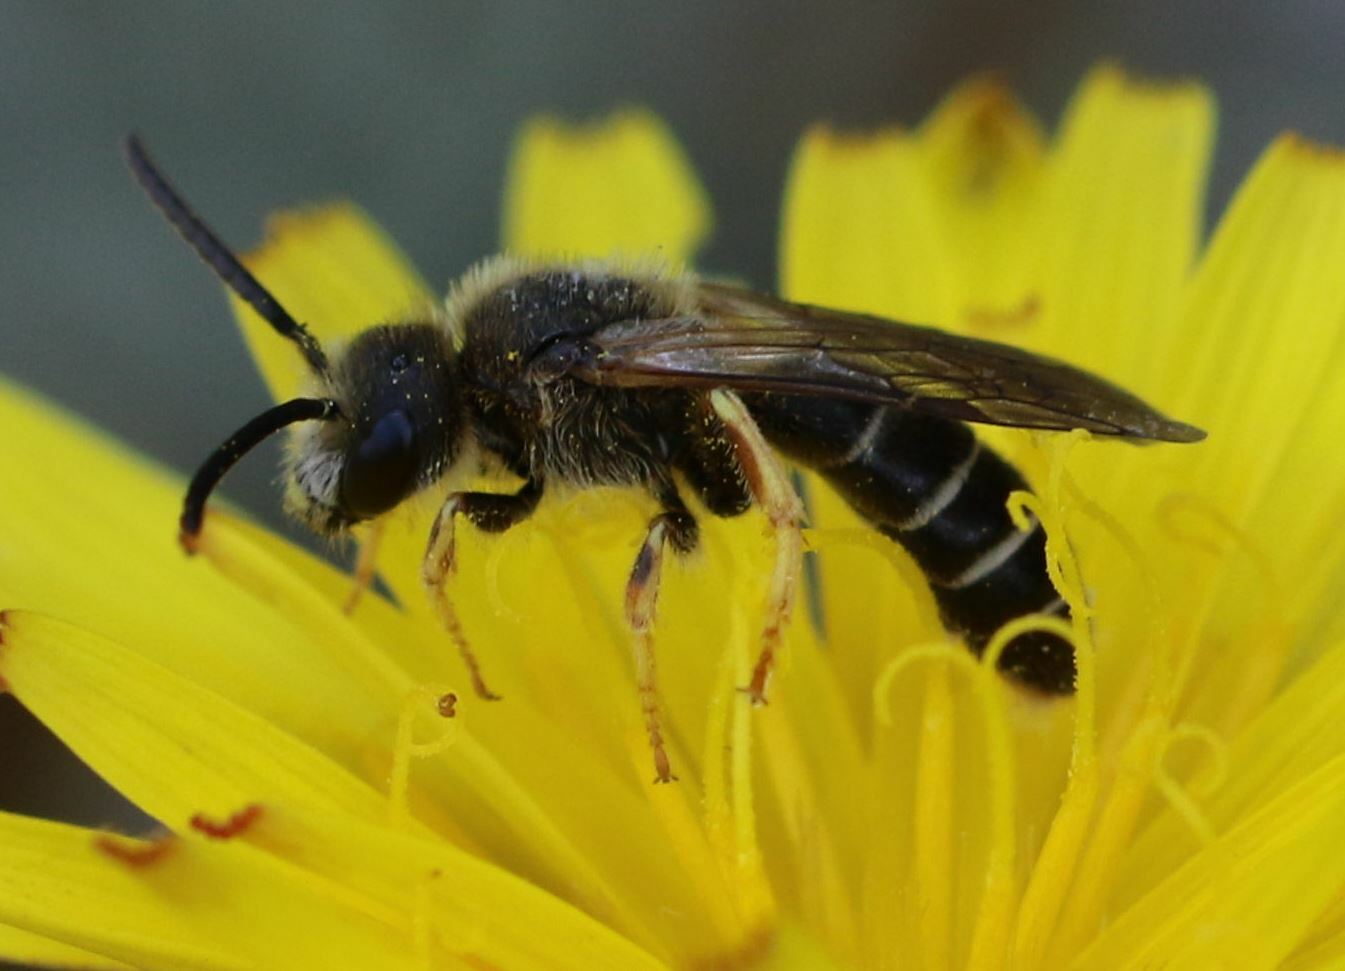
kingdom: Animalia
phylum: Arthropoda
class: Insecta
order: Hymenoptera
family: Halictidae
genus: Halictus
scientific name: Halictus rubicundus
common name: Orange-legged furrow bee
